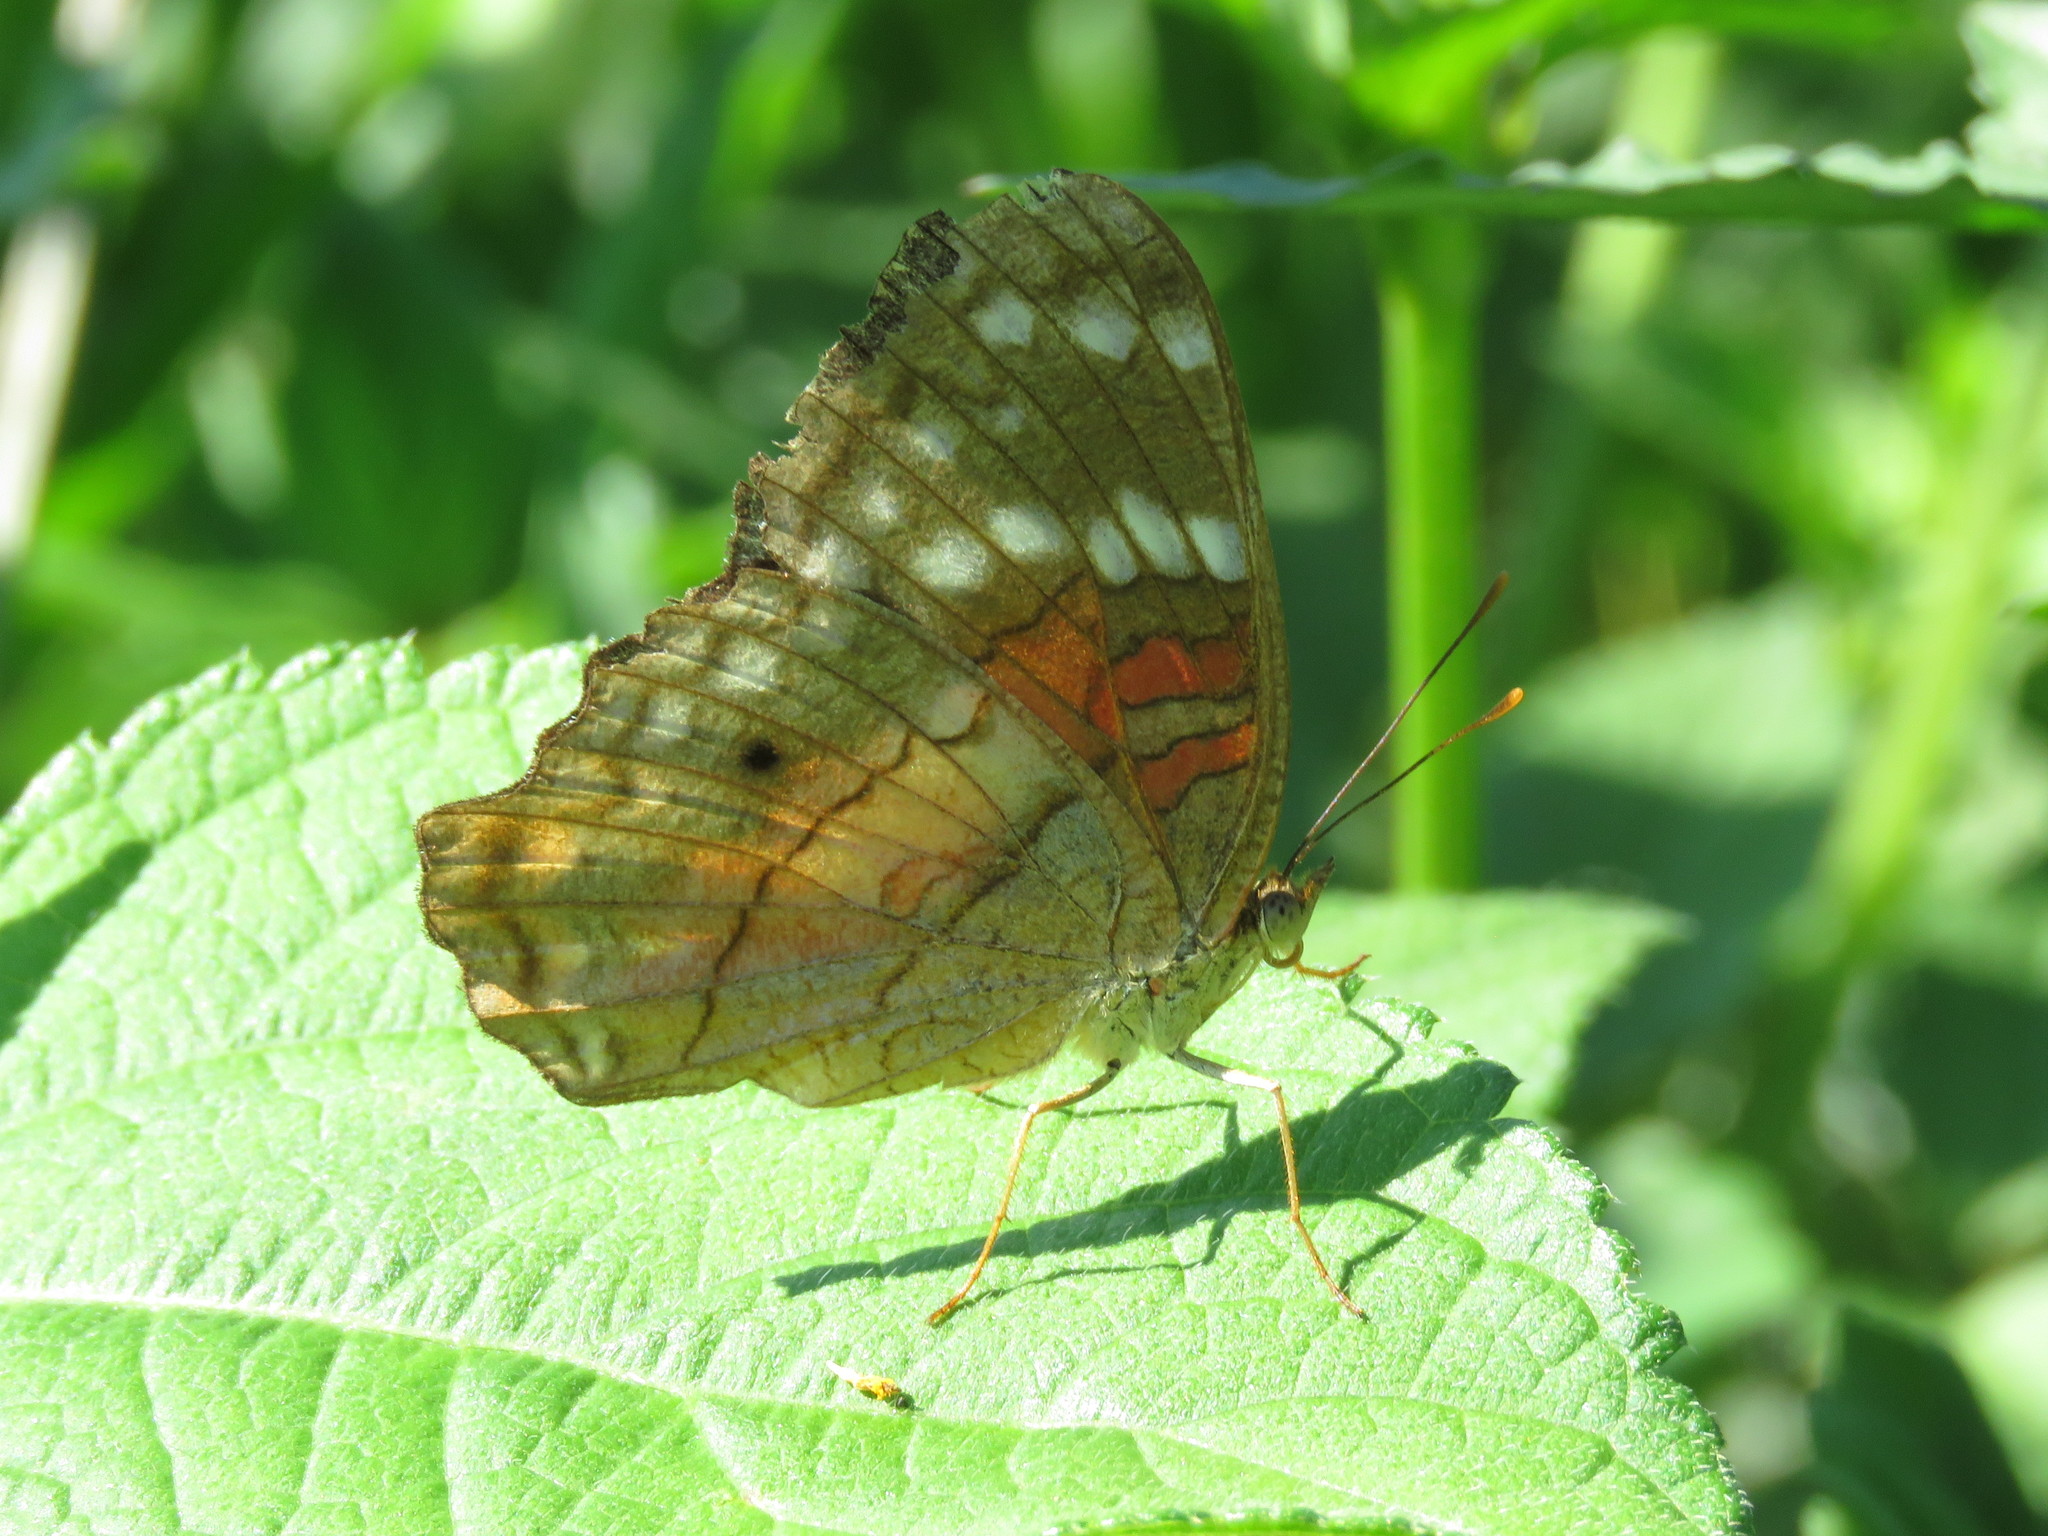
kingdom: Animalia
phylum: Arthropoda
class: Insecta
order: Lepidoptera
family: Nymphalidae
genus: Anartia
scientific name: Anartia amathea
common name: Red peacock
